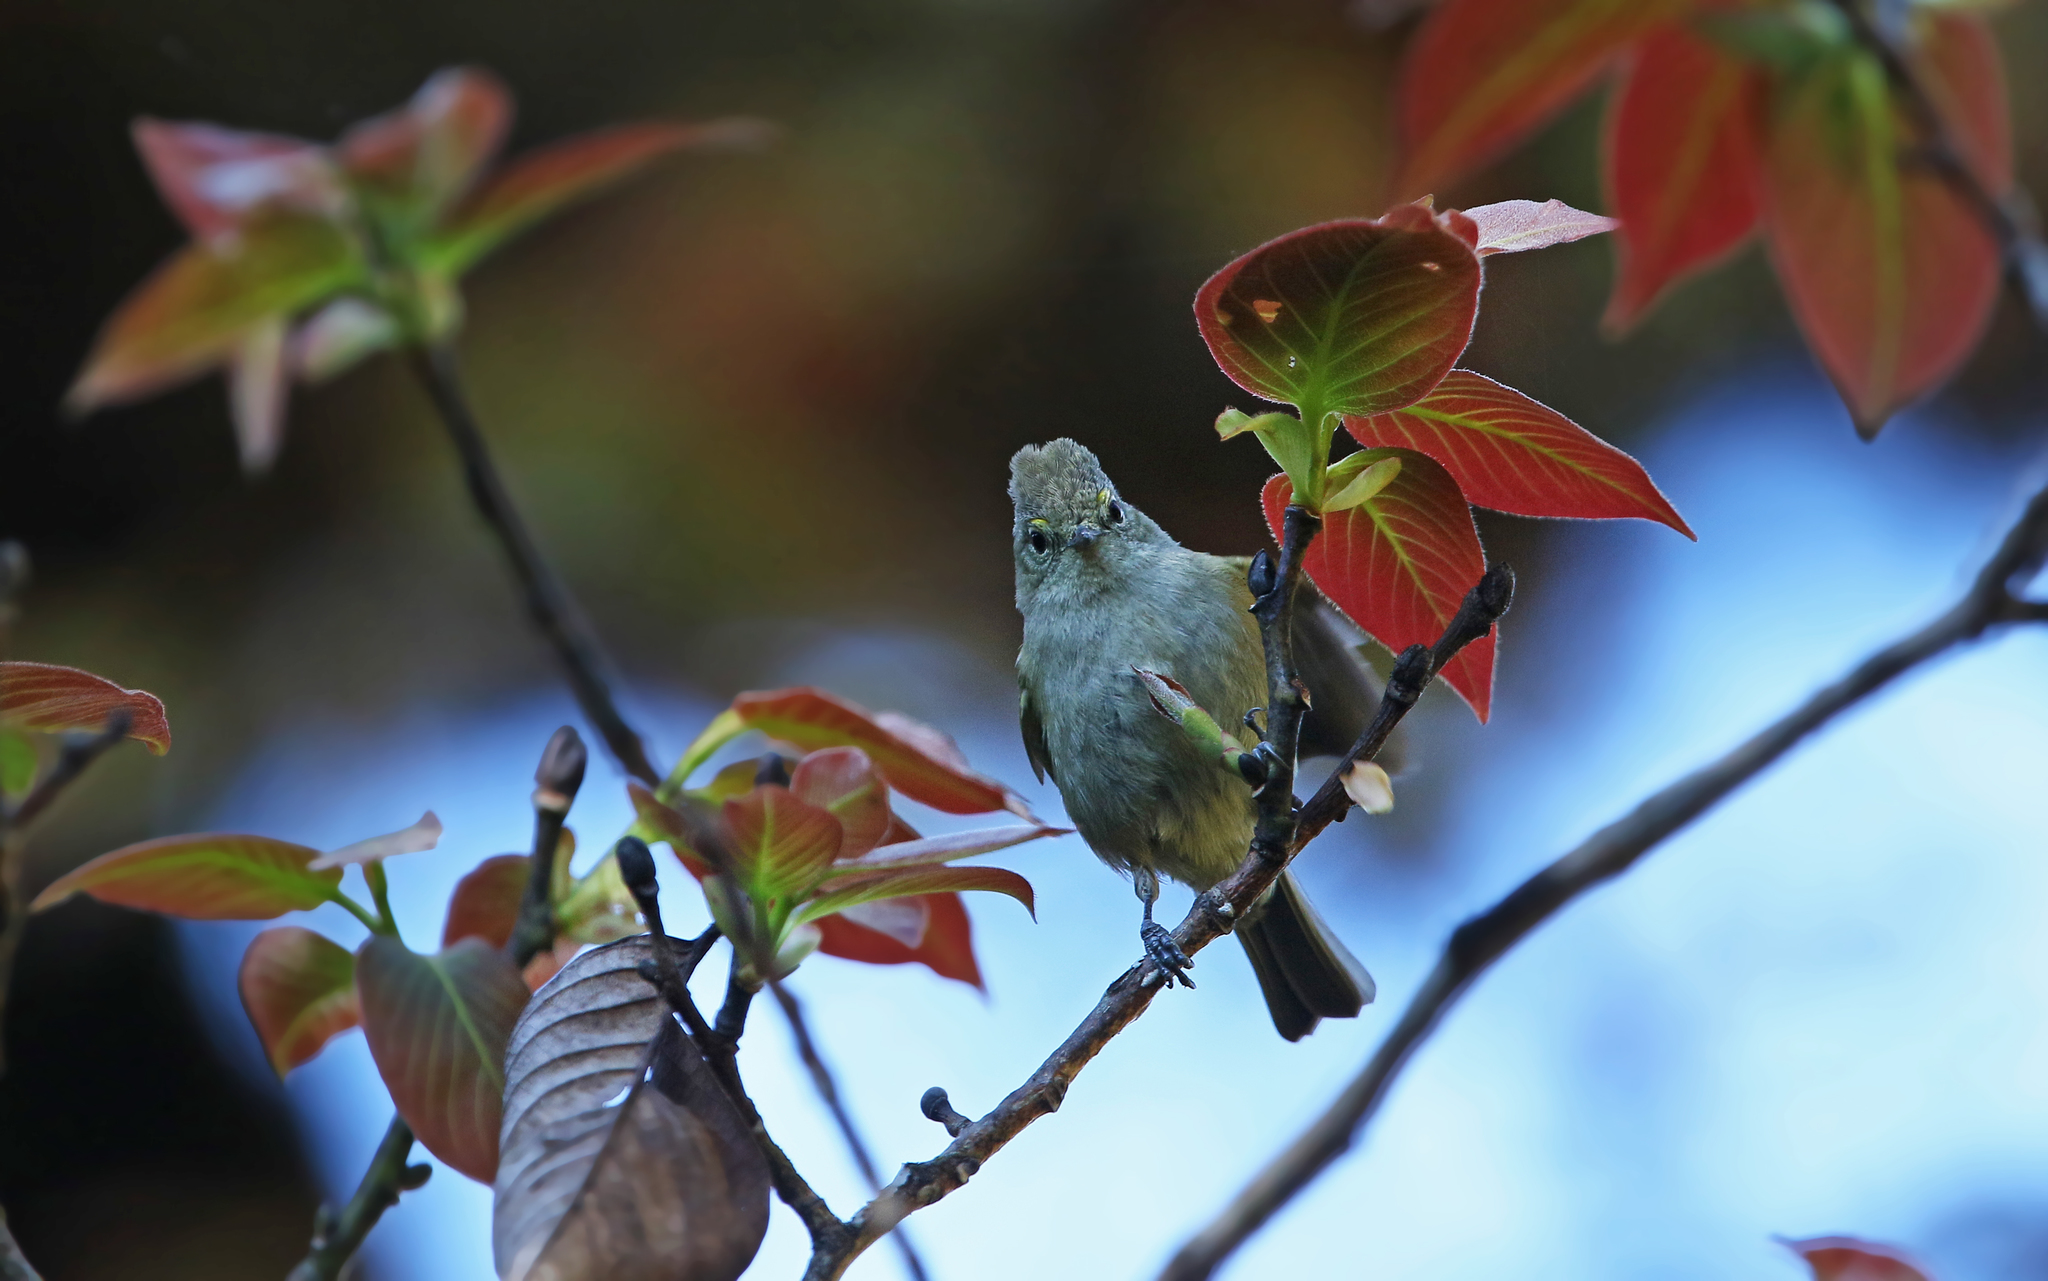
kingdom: Animalia
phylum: Chordata
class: Aves
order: Passeriformes
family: Paridae
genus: Sylviparus
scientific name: Sylviparus modestus
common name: Yellow-browed tit
